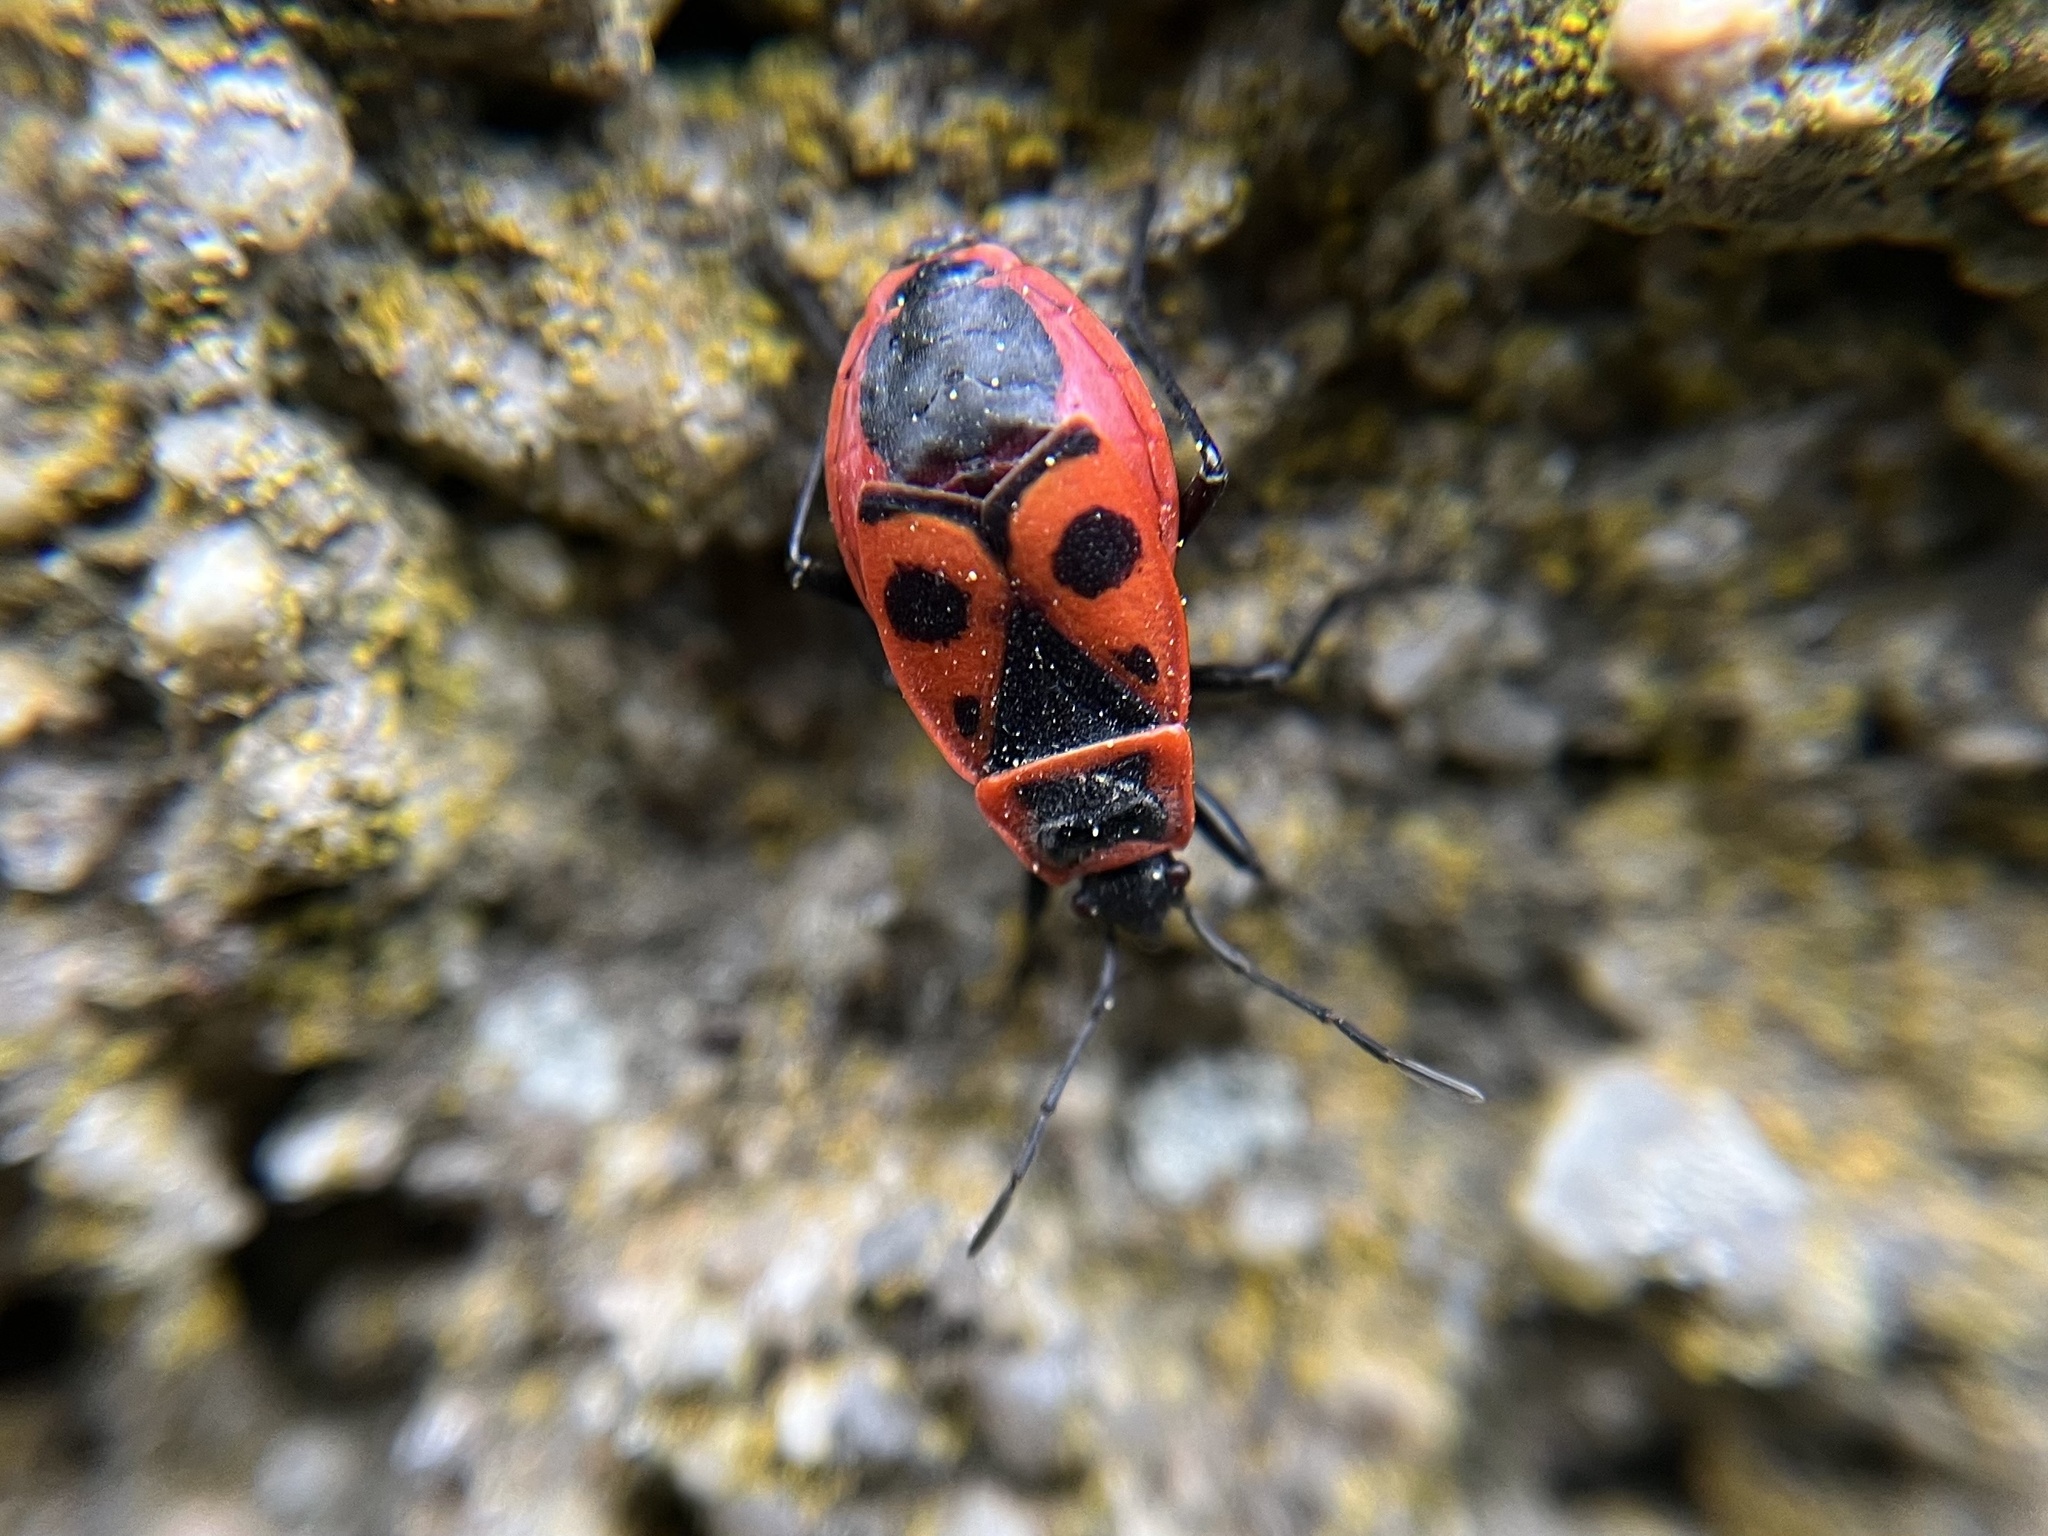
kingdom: Animalia
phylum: Arthropoda
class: Insecta
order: Hemiptera
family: Pyrrhocoridae
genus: Pyrrhocoris
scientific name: Pyrrhocoris apterus
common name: Firebug
